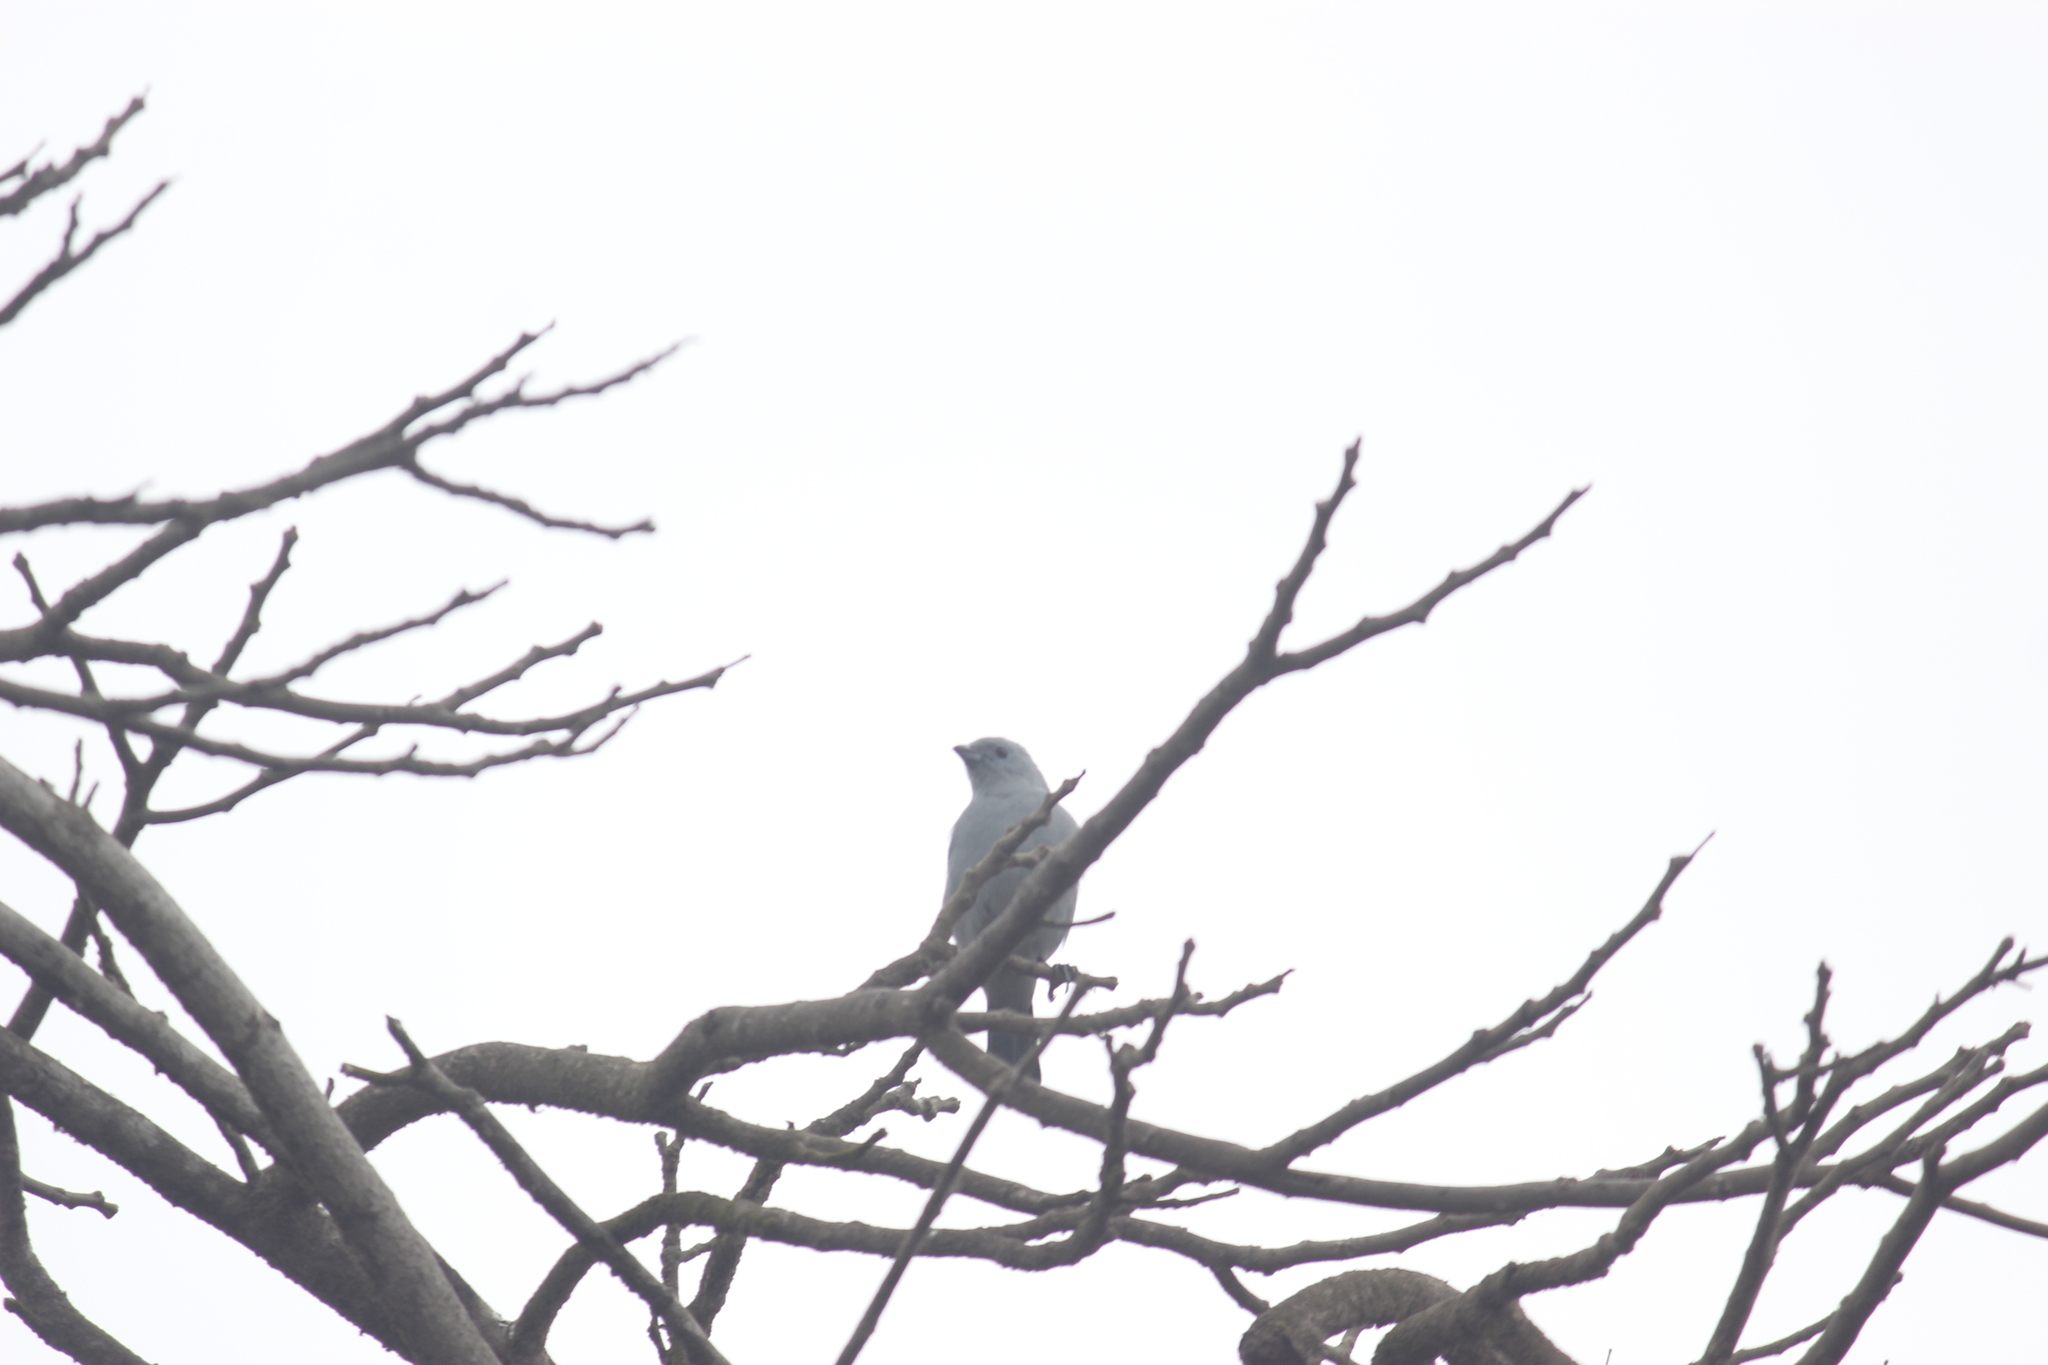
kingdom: Animalia
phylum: Chordata
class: Aves
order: Passeriformes
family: Thraupidae
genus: Thraupis
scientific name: Thraupis episcopus
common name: Blue-grey tanager
